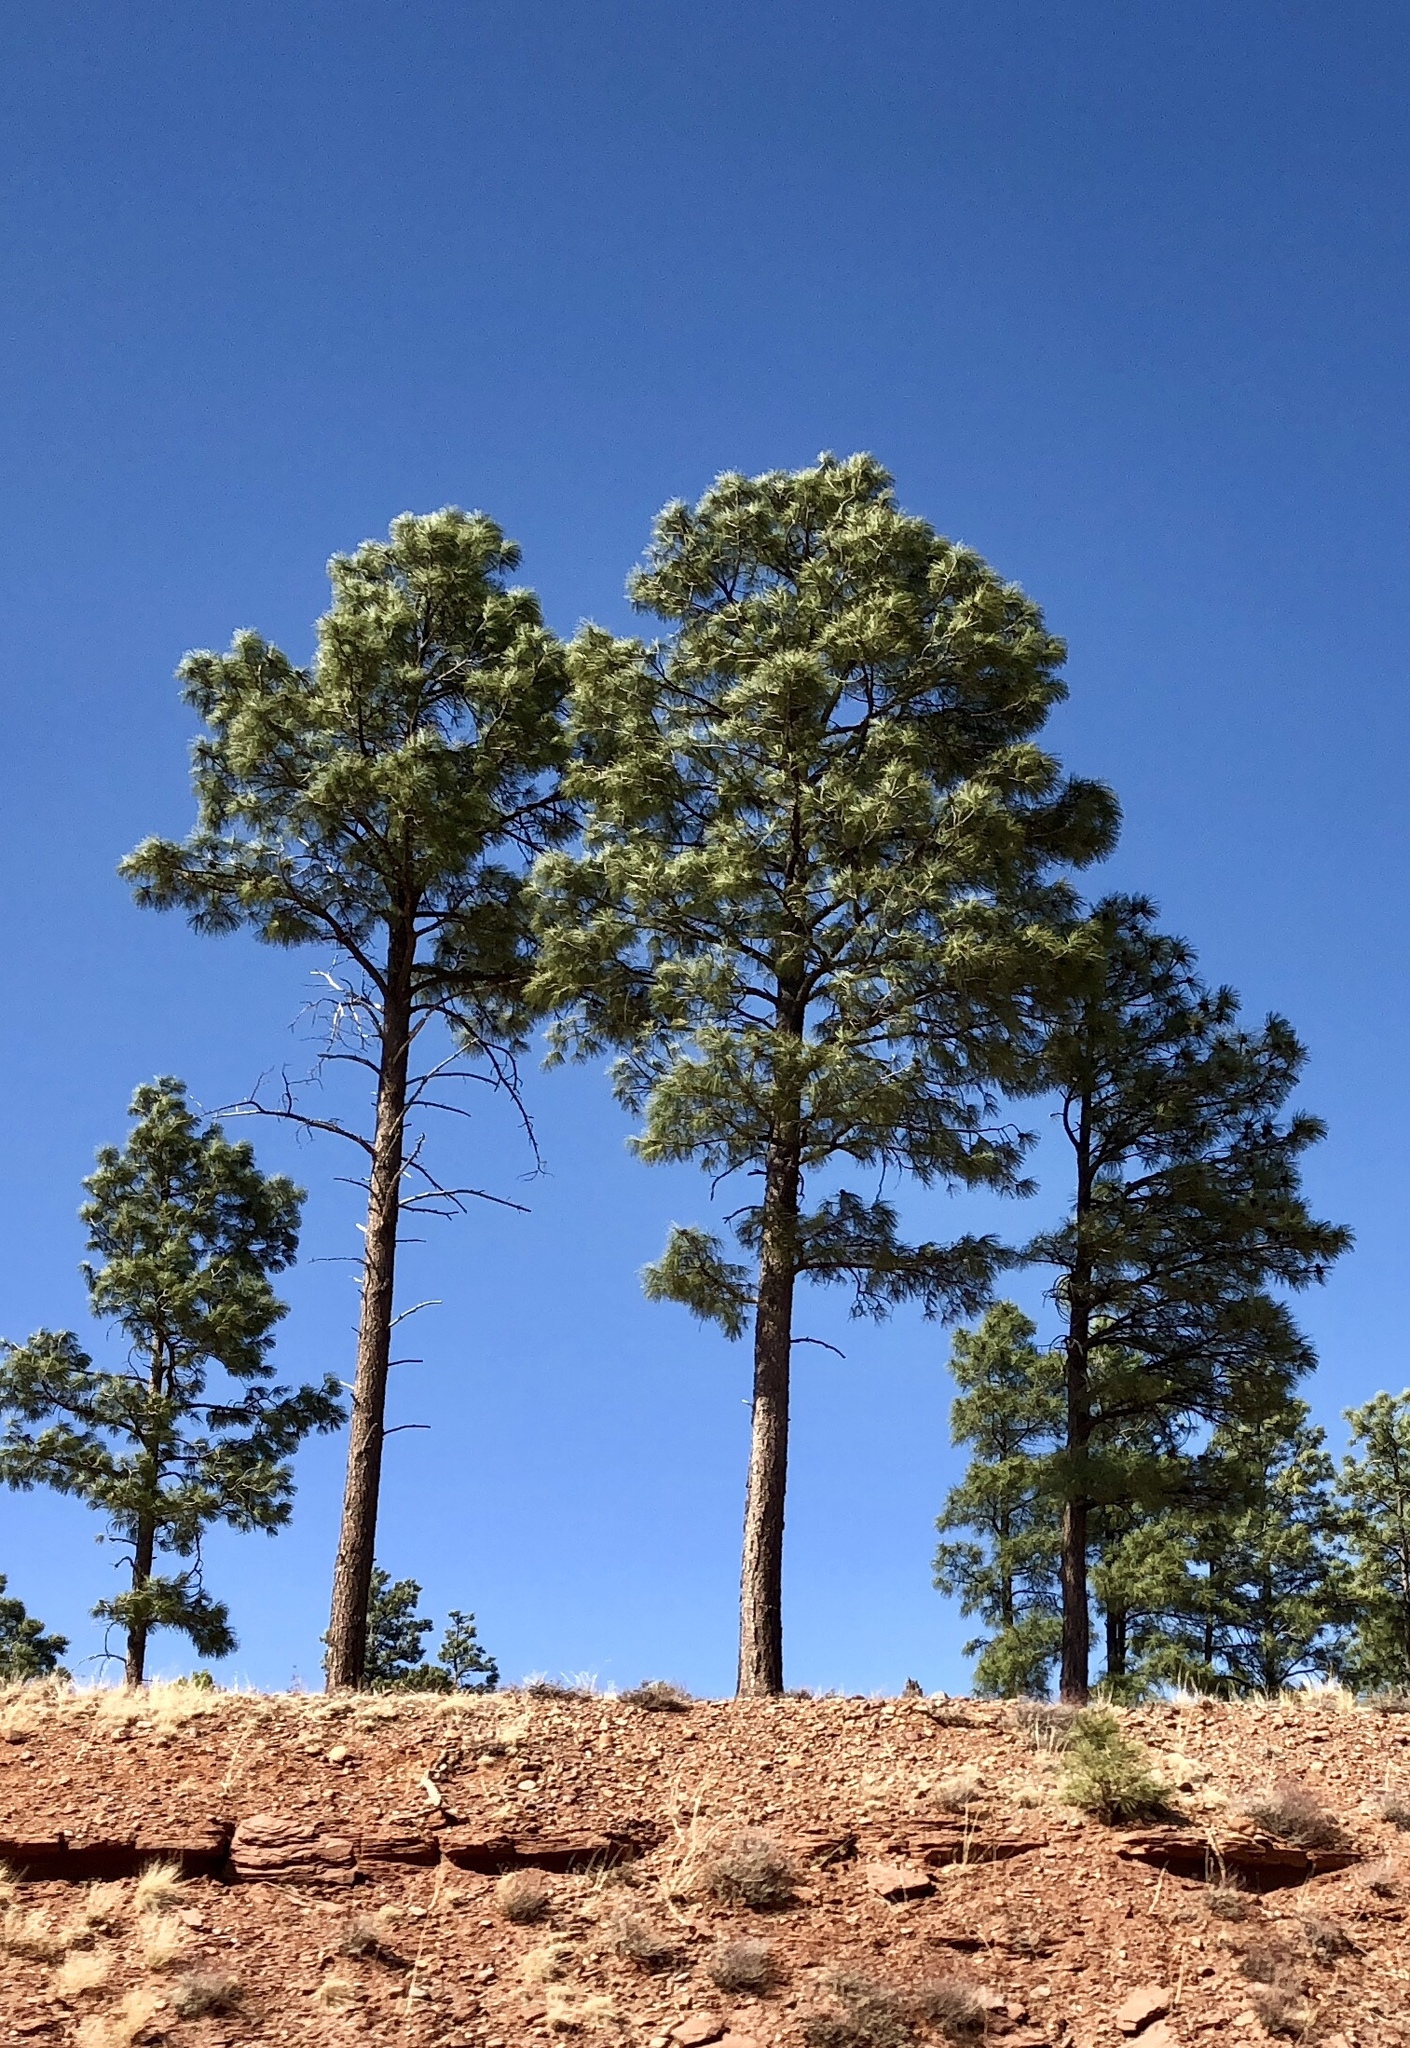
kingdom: Plantae
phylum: Tracheophyta
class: Pinopsida
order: Pinales
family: Pinaceae
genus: Pinus
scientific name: Pinus ponderosa
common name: Western yellow-pine
